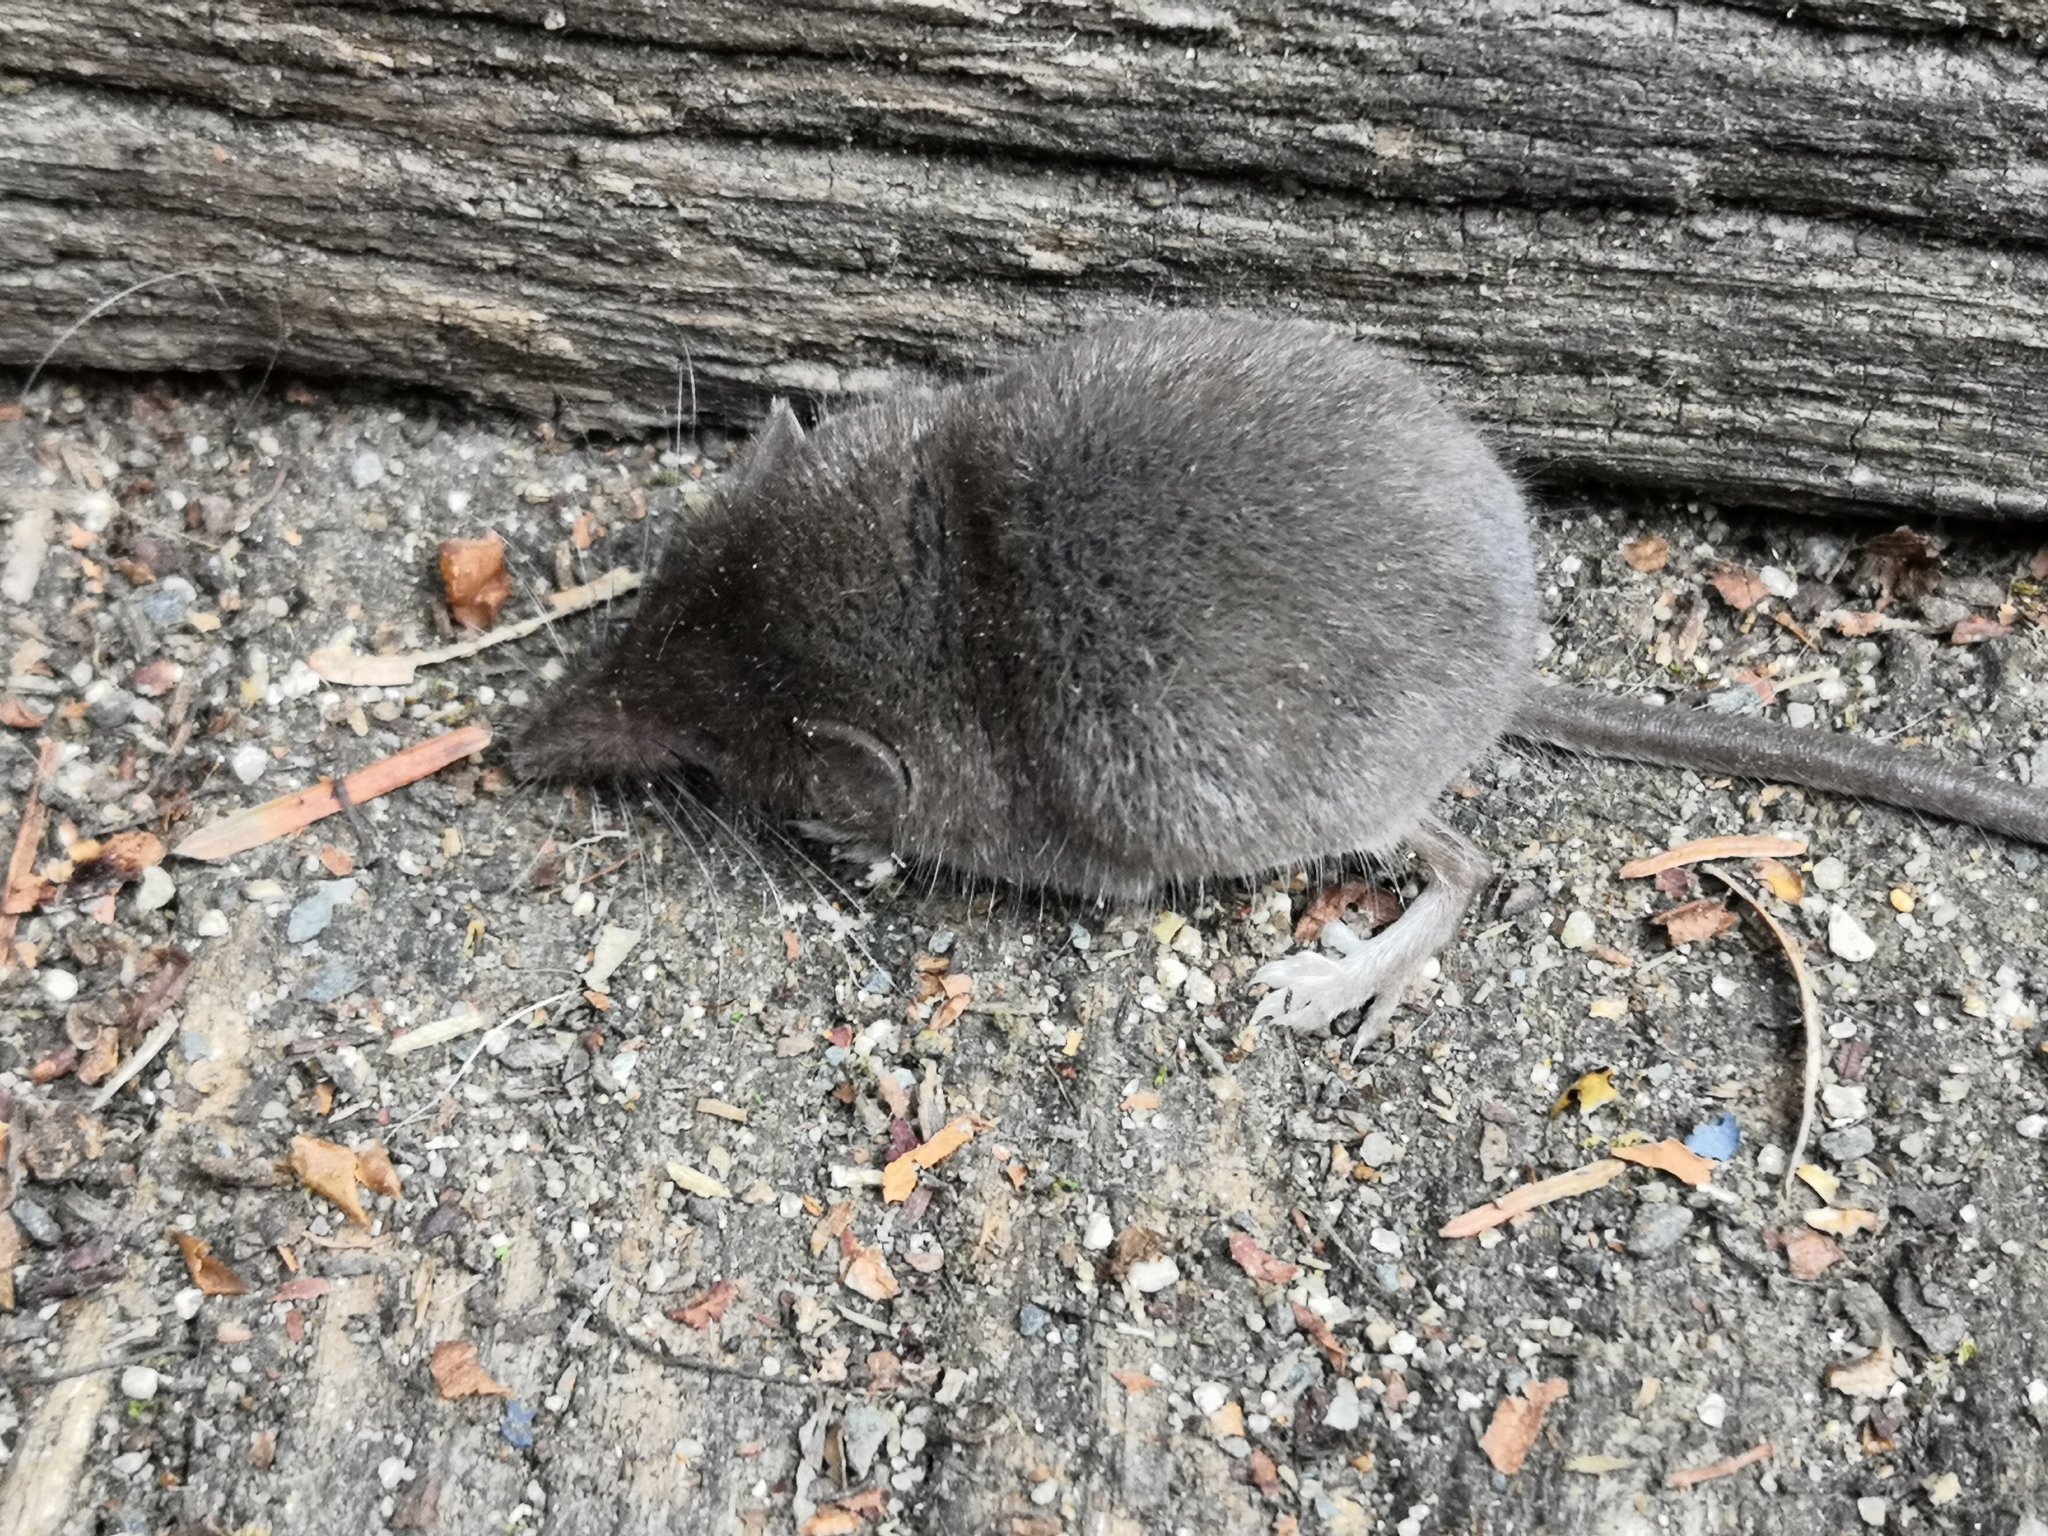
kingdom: Animalia
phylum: Chordata
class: Mammalia
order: Soricomorpha
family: Soricidae
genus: Crocidura
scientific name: Crocidura suaveolens
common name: Lesser white-toothed shrew
